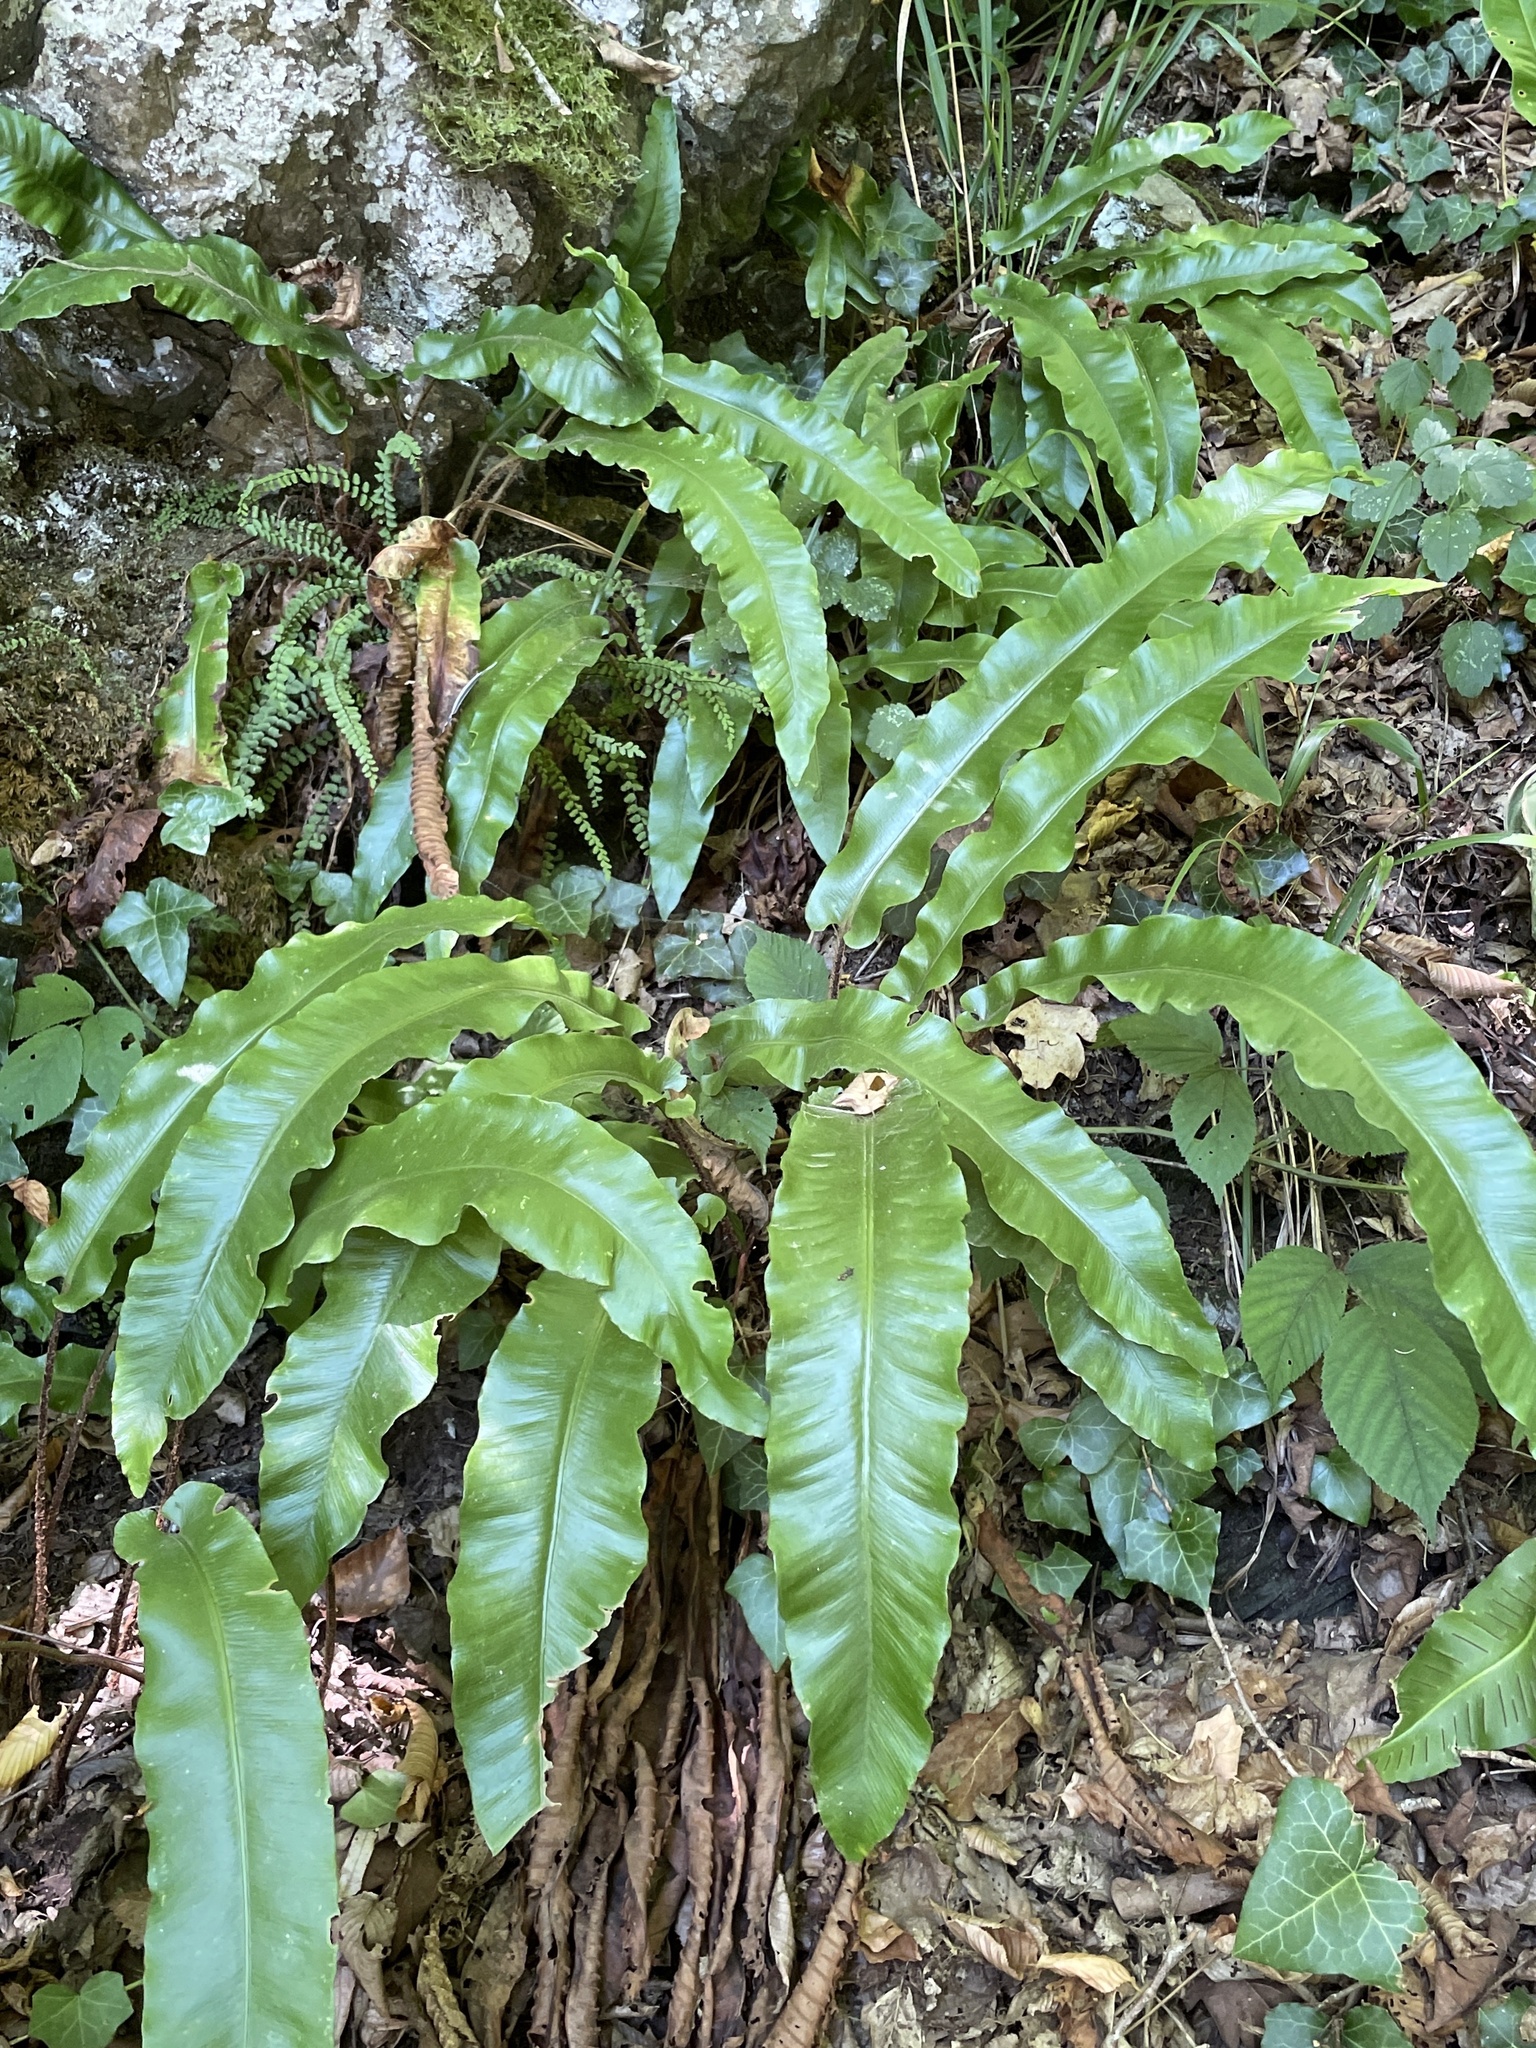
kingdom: Plantae
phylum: Tracheophyta
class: Polypodiopsida
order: Polypodiales
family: Aspleniaceae
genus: Asplenium
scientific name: Asplenium scolopendrium
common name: Hart's-tongue fern
